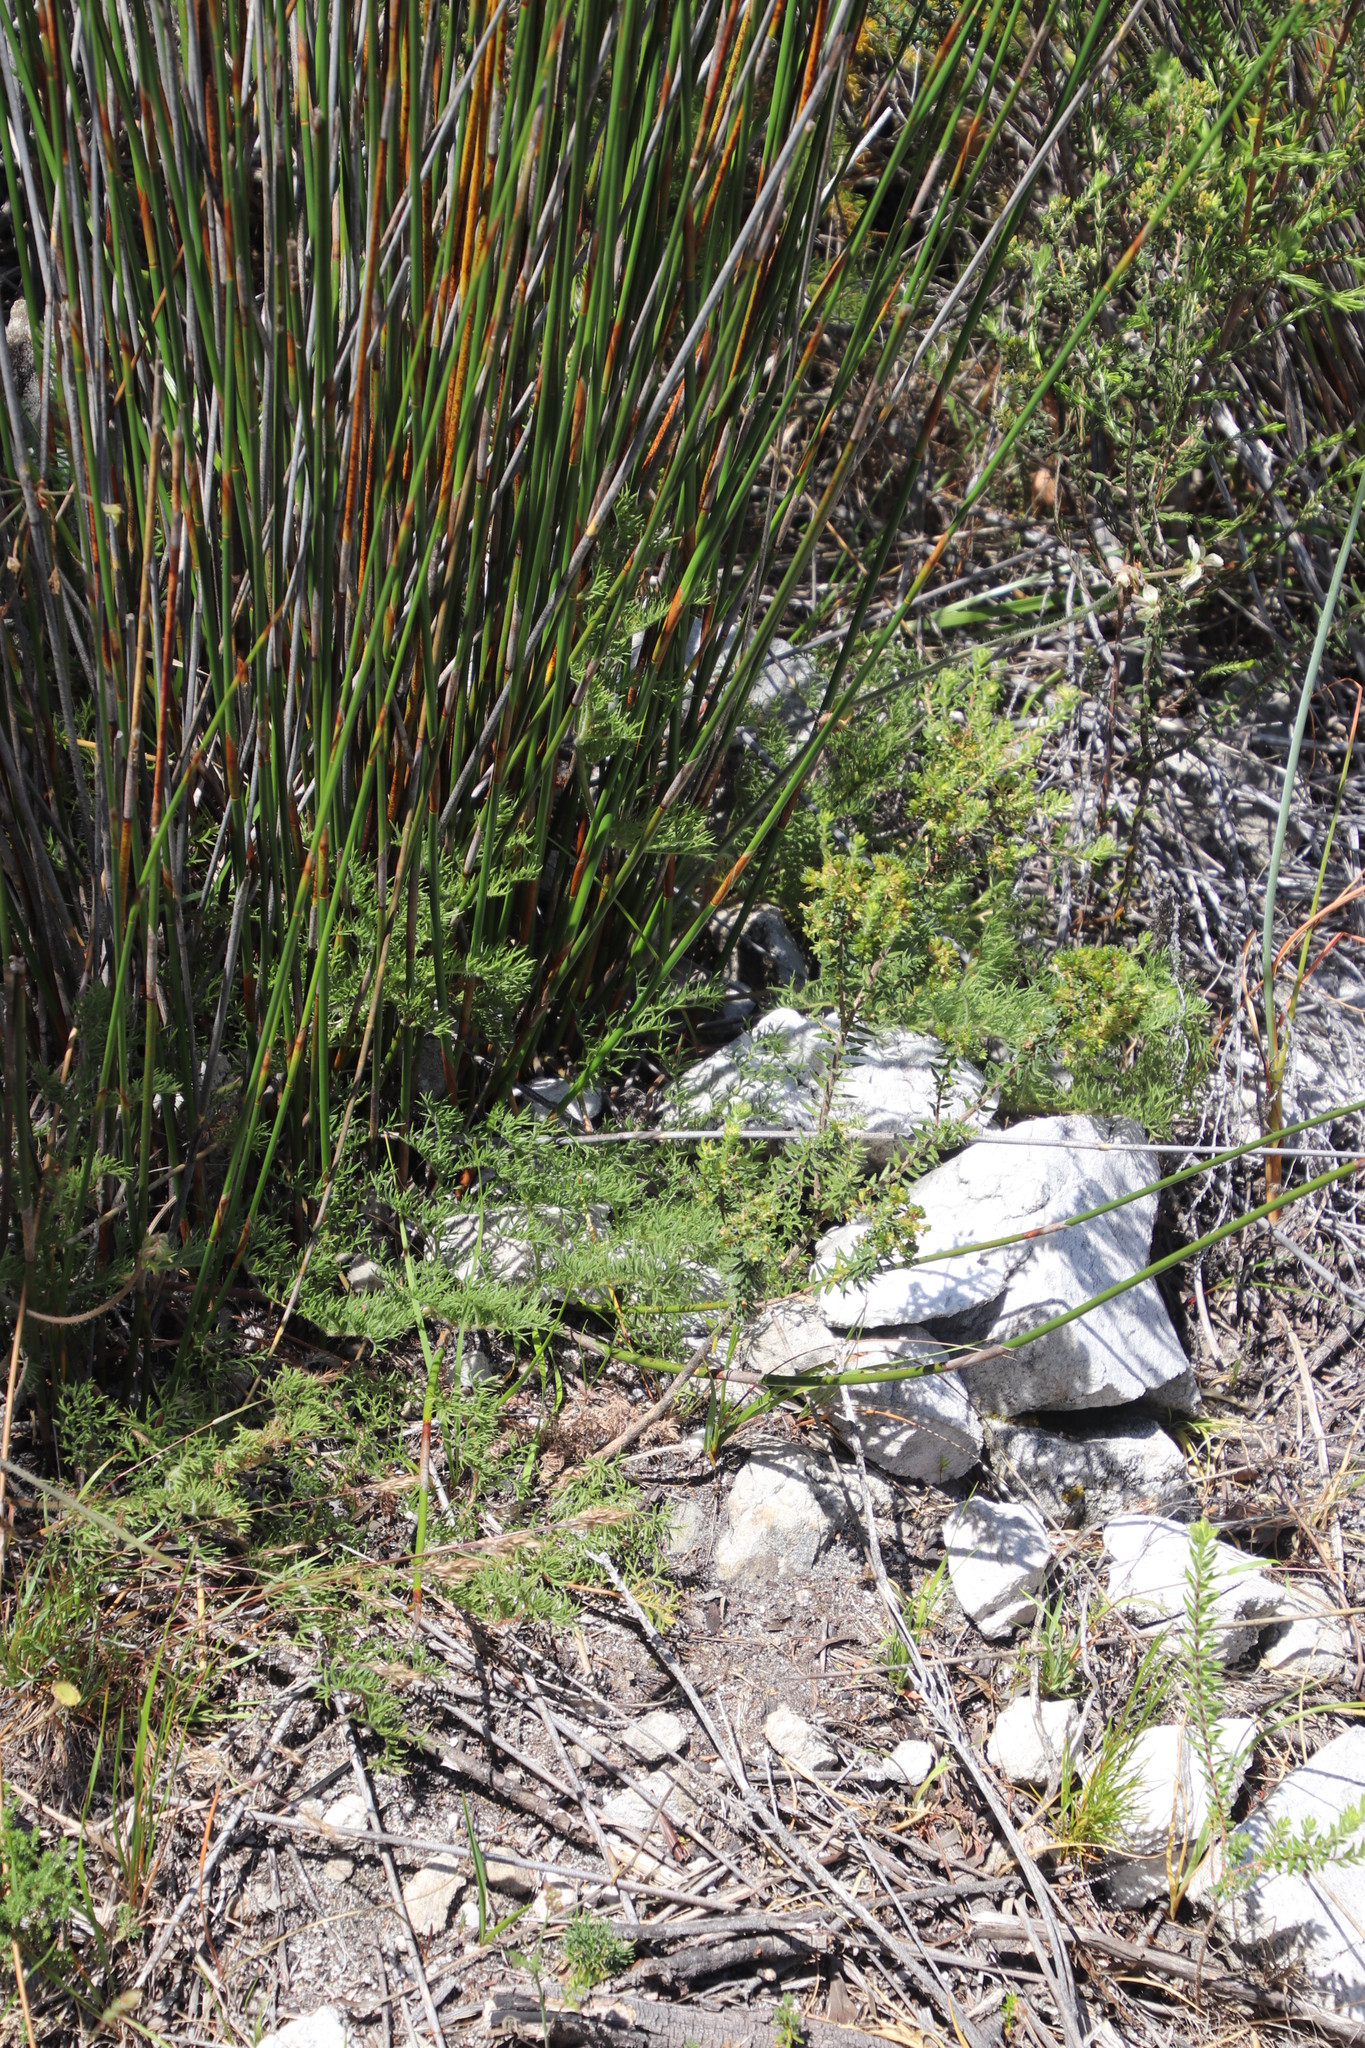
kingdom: Plantae
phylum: Tracheophyta
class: Magnoliopsida
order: Geraniales
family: Geraniaceae
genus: Pelargonium
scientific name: Pelargonium triste
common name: Night-scent pelargonium
